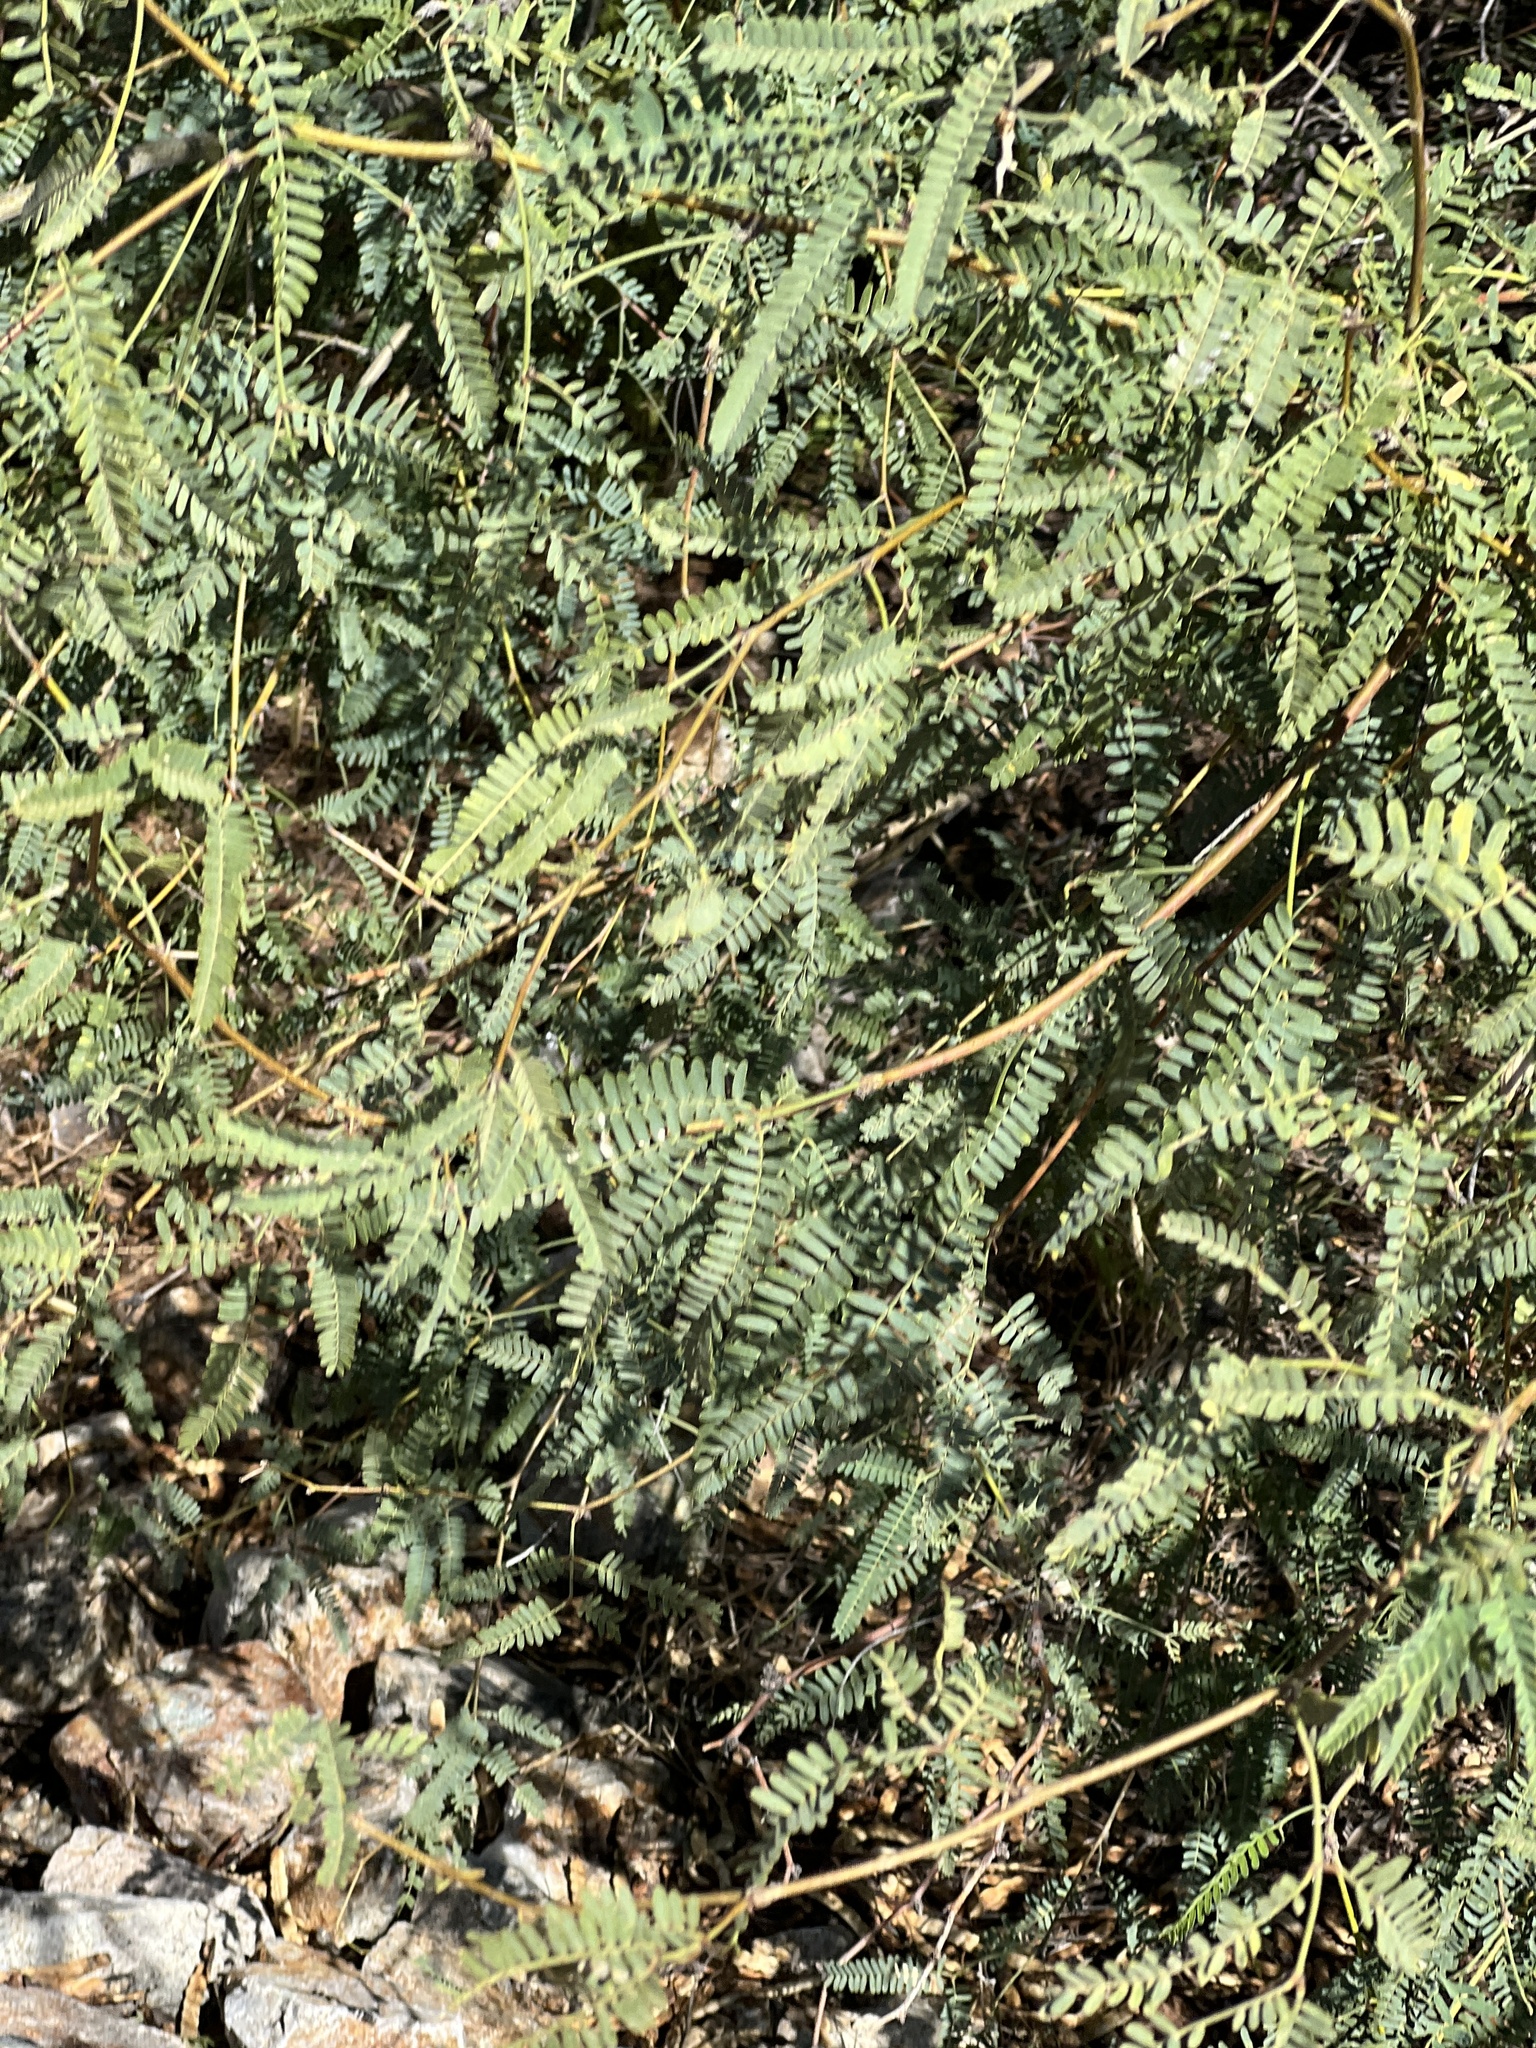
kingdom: Plantae
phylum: Tracheophyta
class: Magnoliopsida
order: Fabales
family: Fabaceae
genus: Prosopis
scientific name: Prosopis velutina
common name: Velvet mesquite
